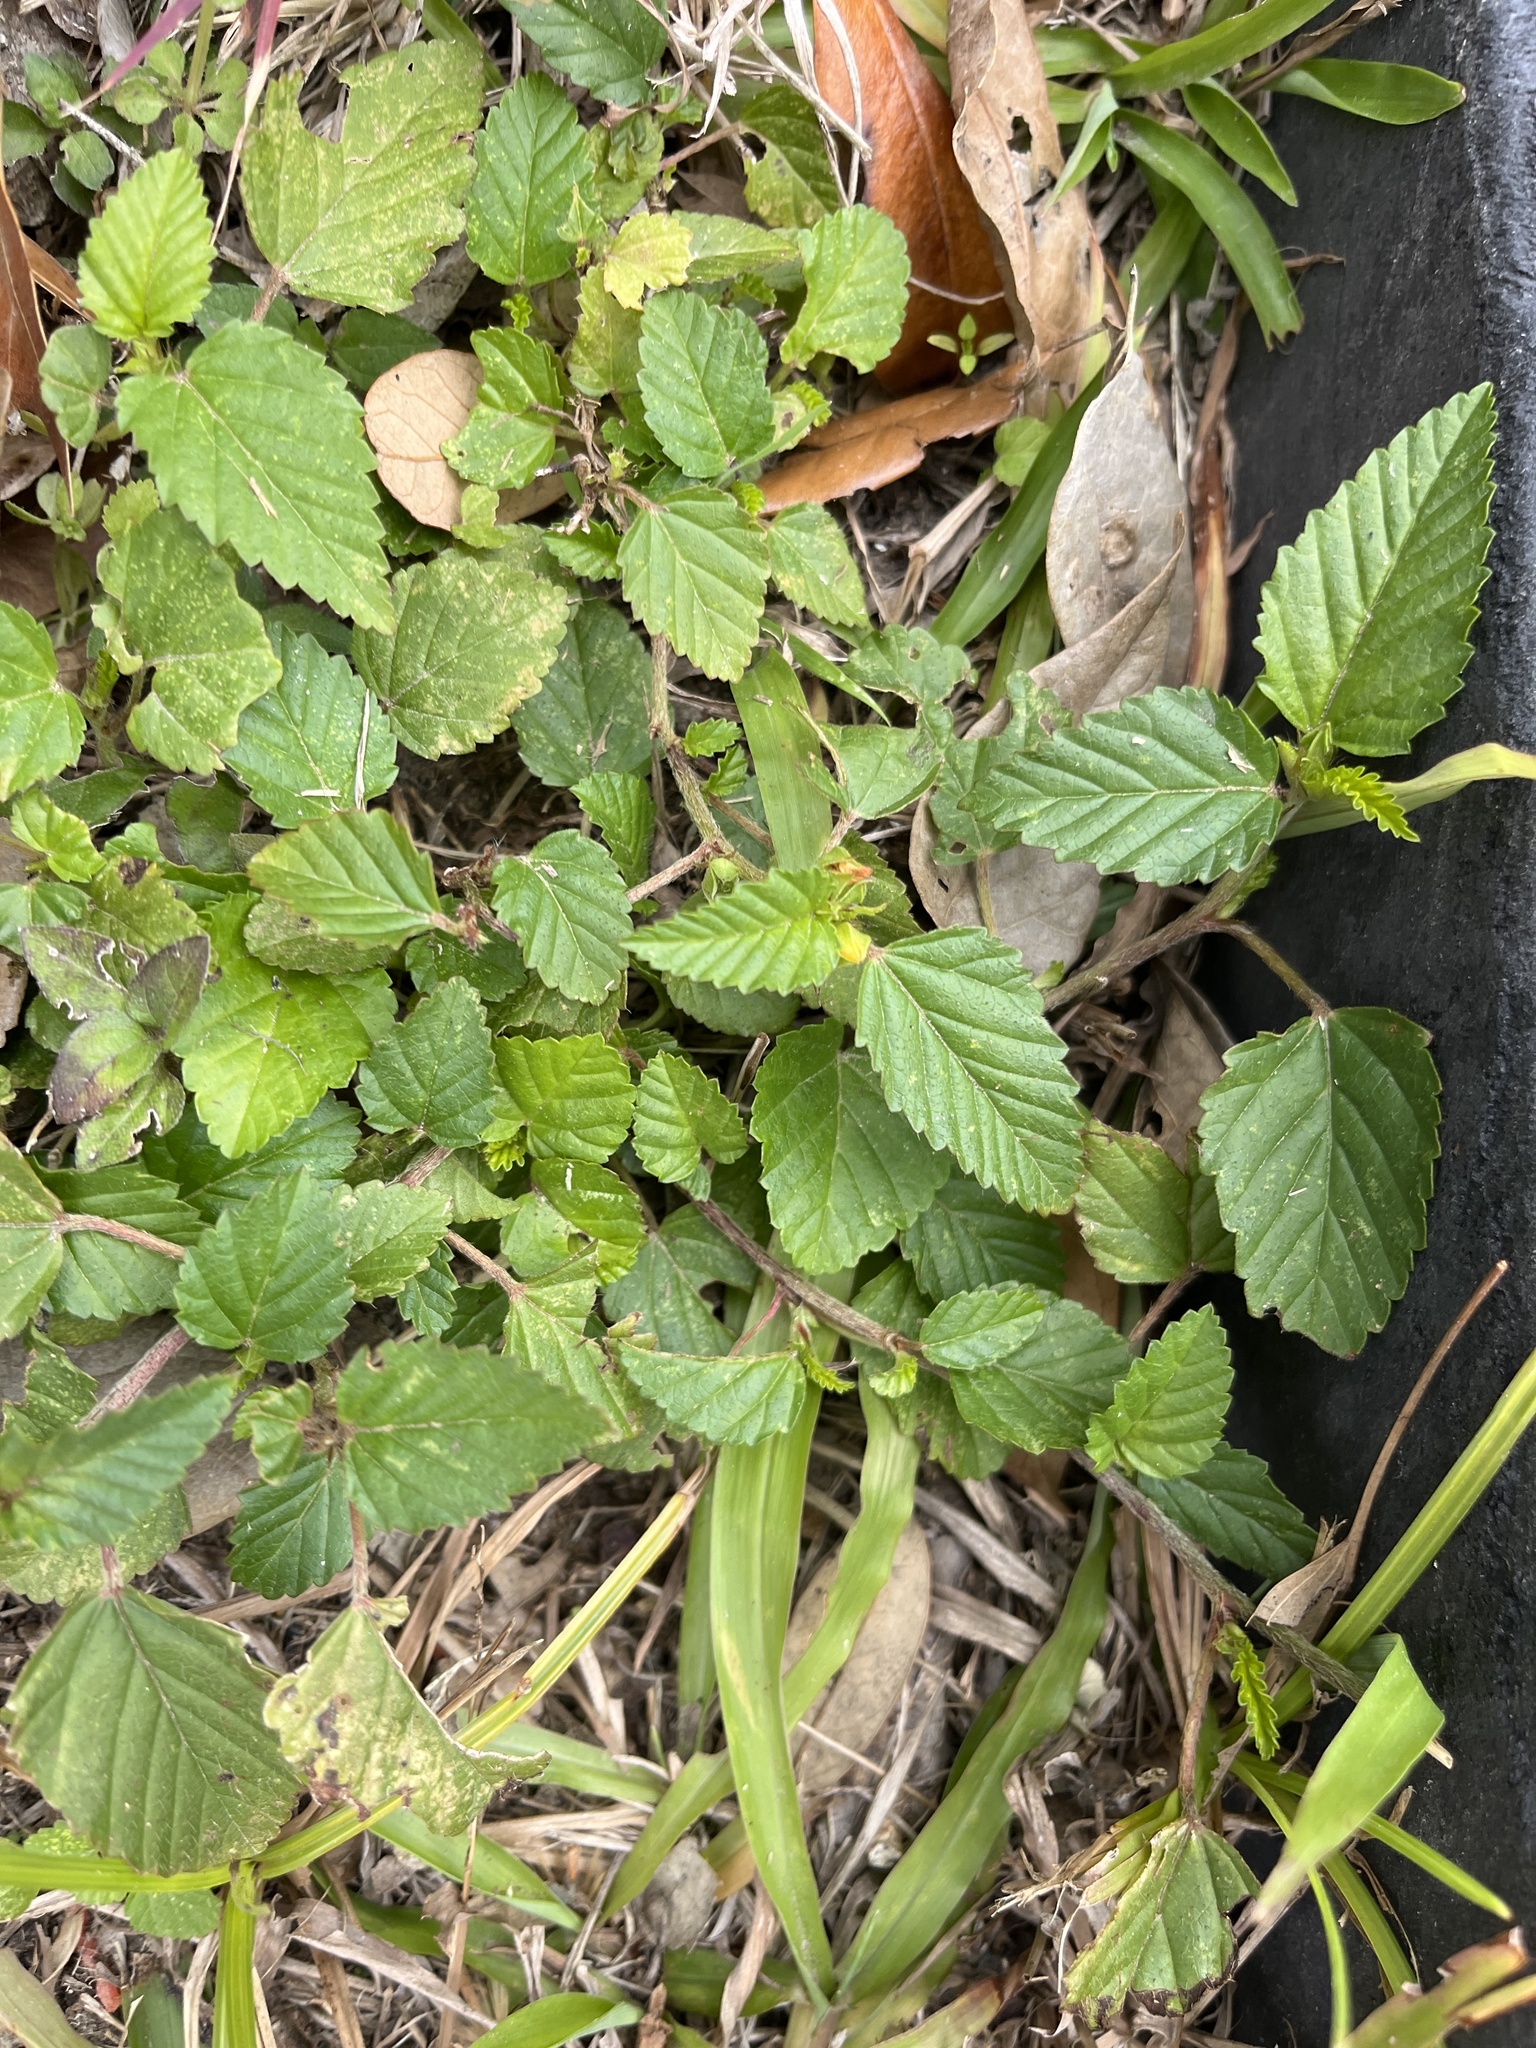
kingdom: Plantae
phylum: Tracheophyta
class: Magnoliopsida
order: Malvales
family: Malvaceae
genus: Malvastrum
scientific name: Malvastrum coromandelianum
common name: Threelobe false mallow
